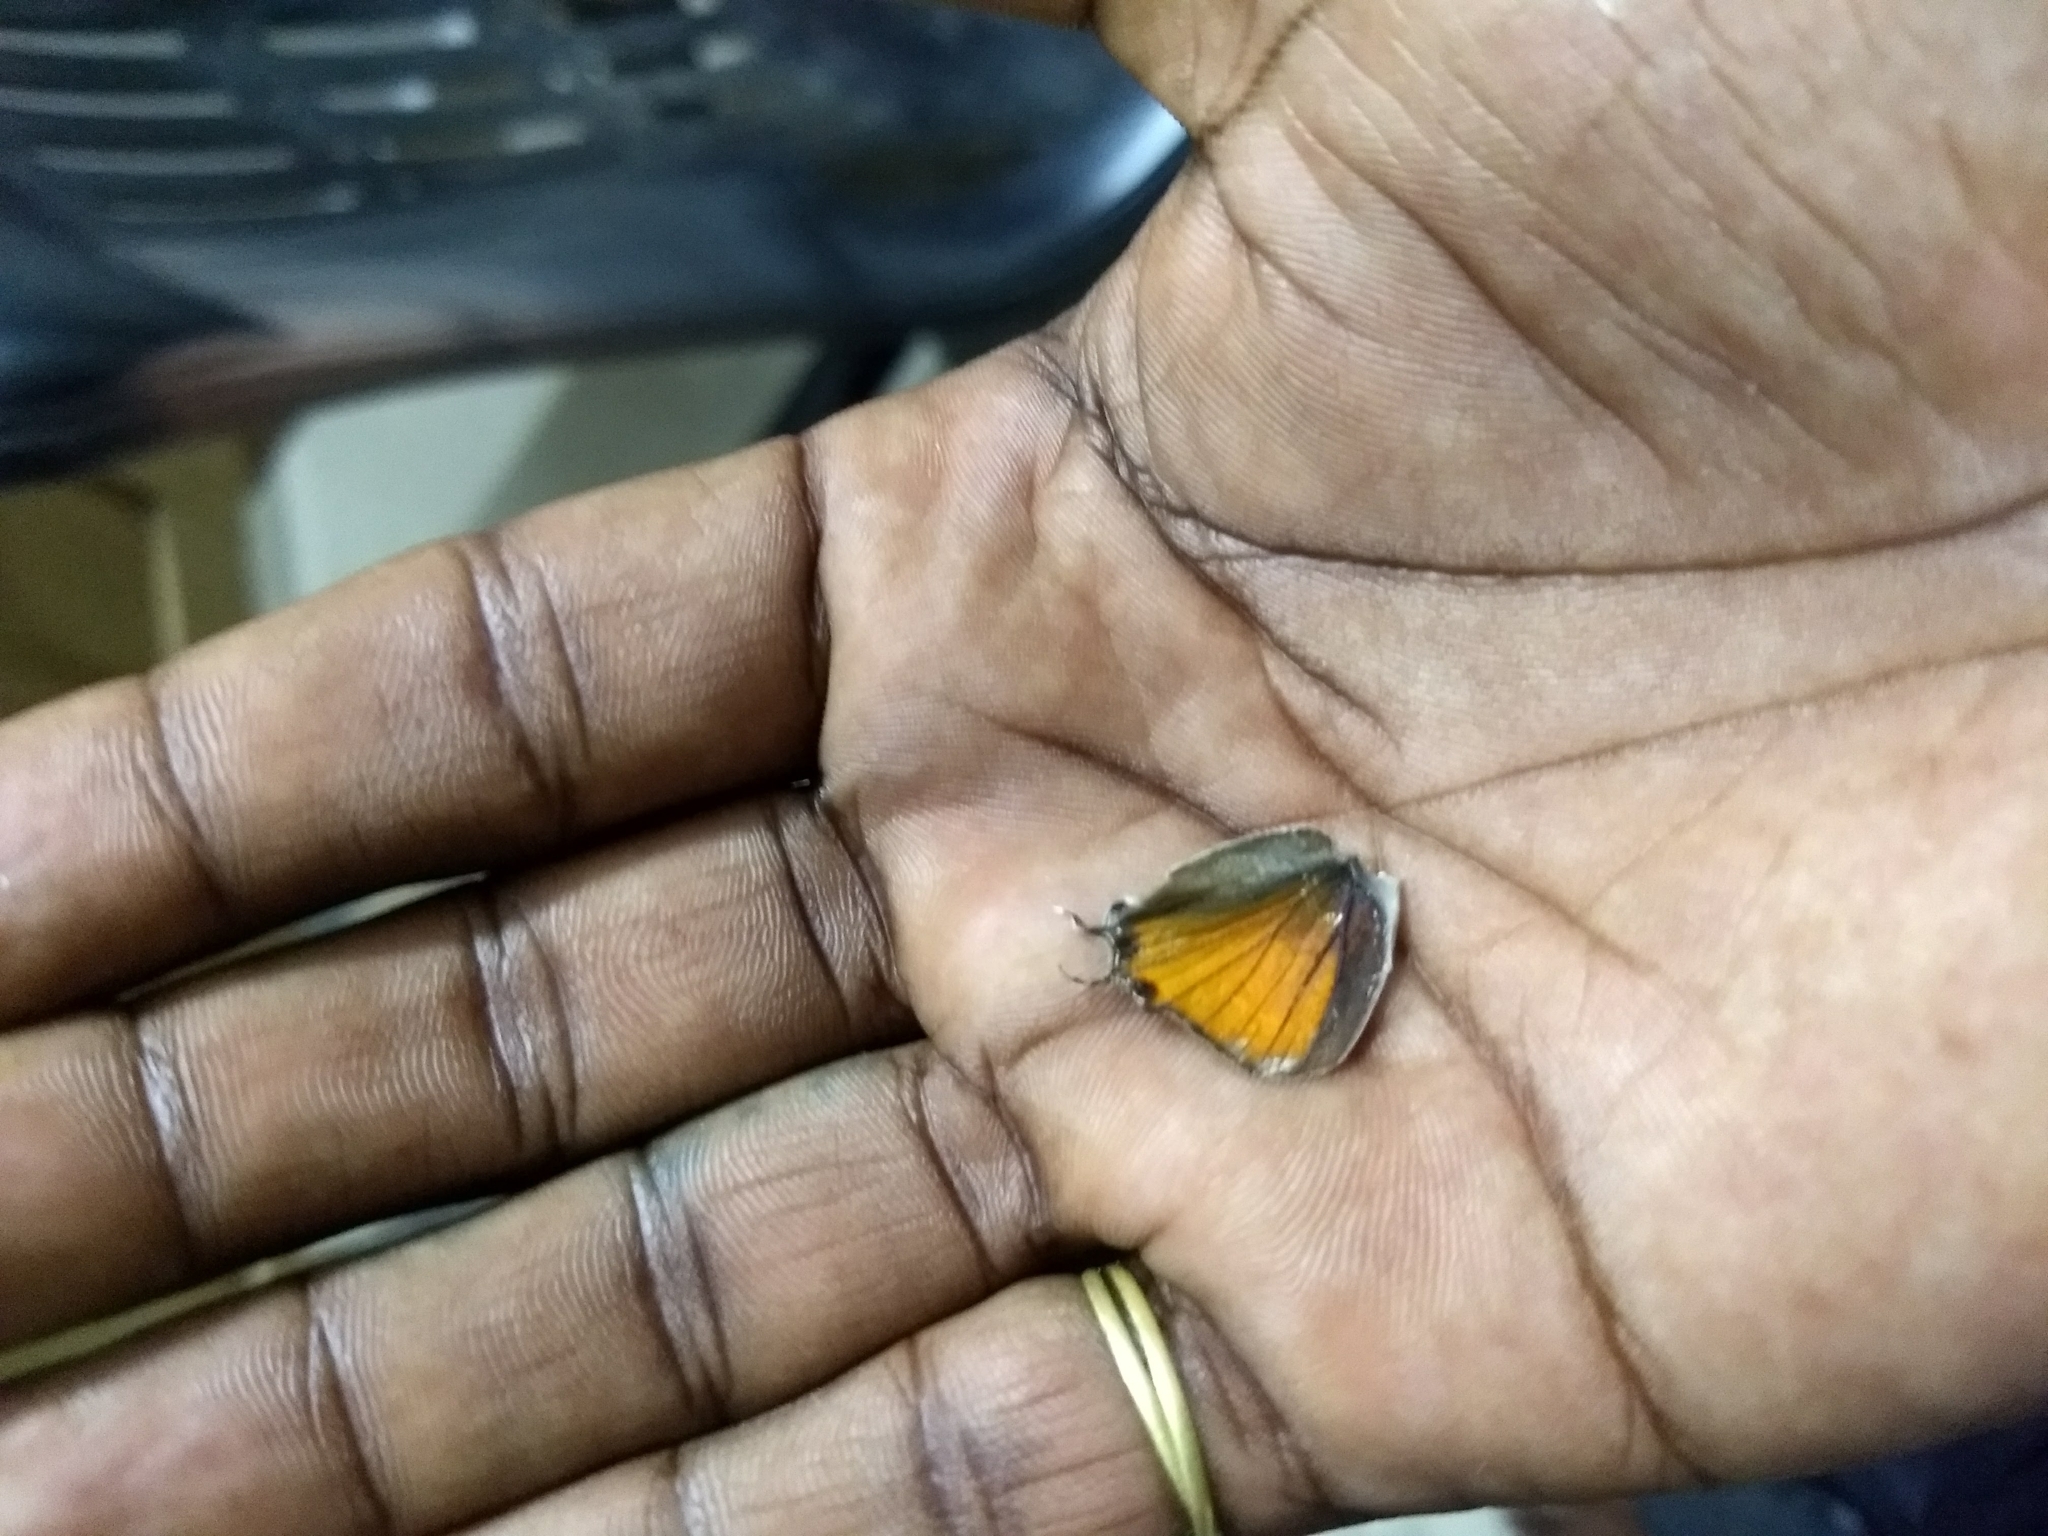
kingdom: Animalia
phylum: Arthropoda
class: Insecta
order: Lepidoptera
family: Lycaenidae
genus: Zesius
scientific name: Zesius chrysomallus
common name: Redspot
